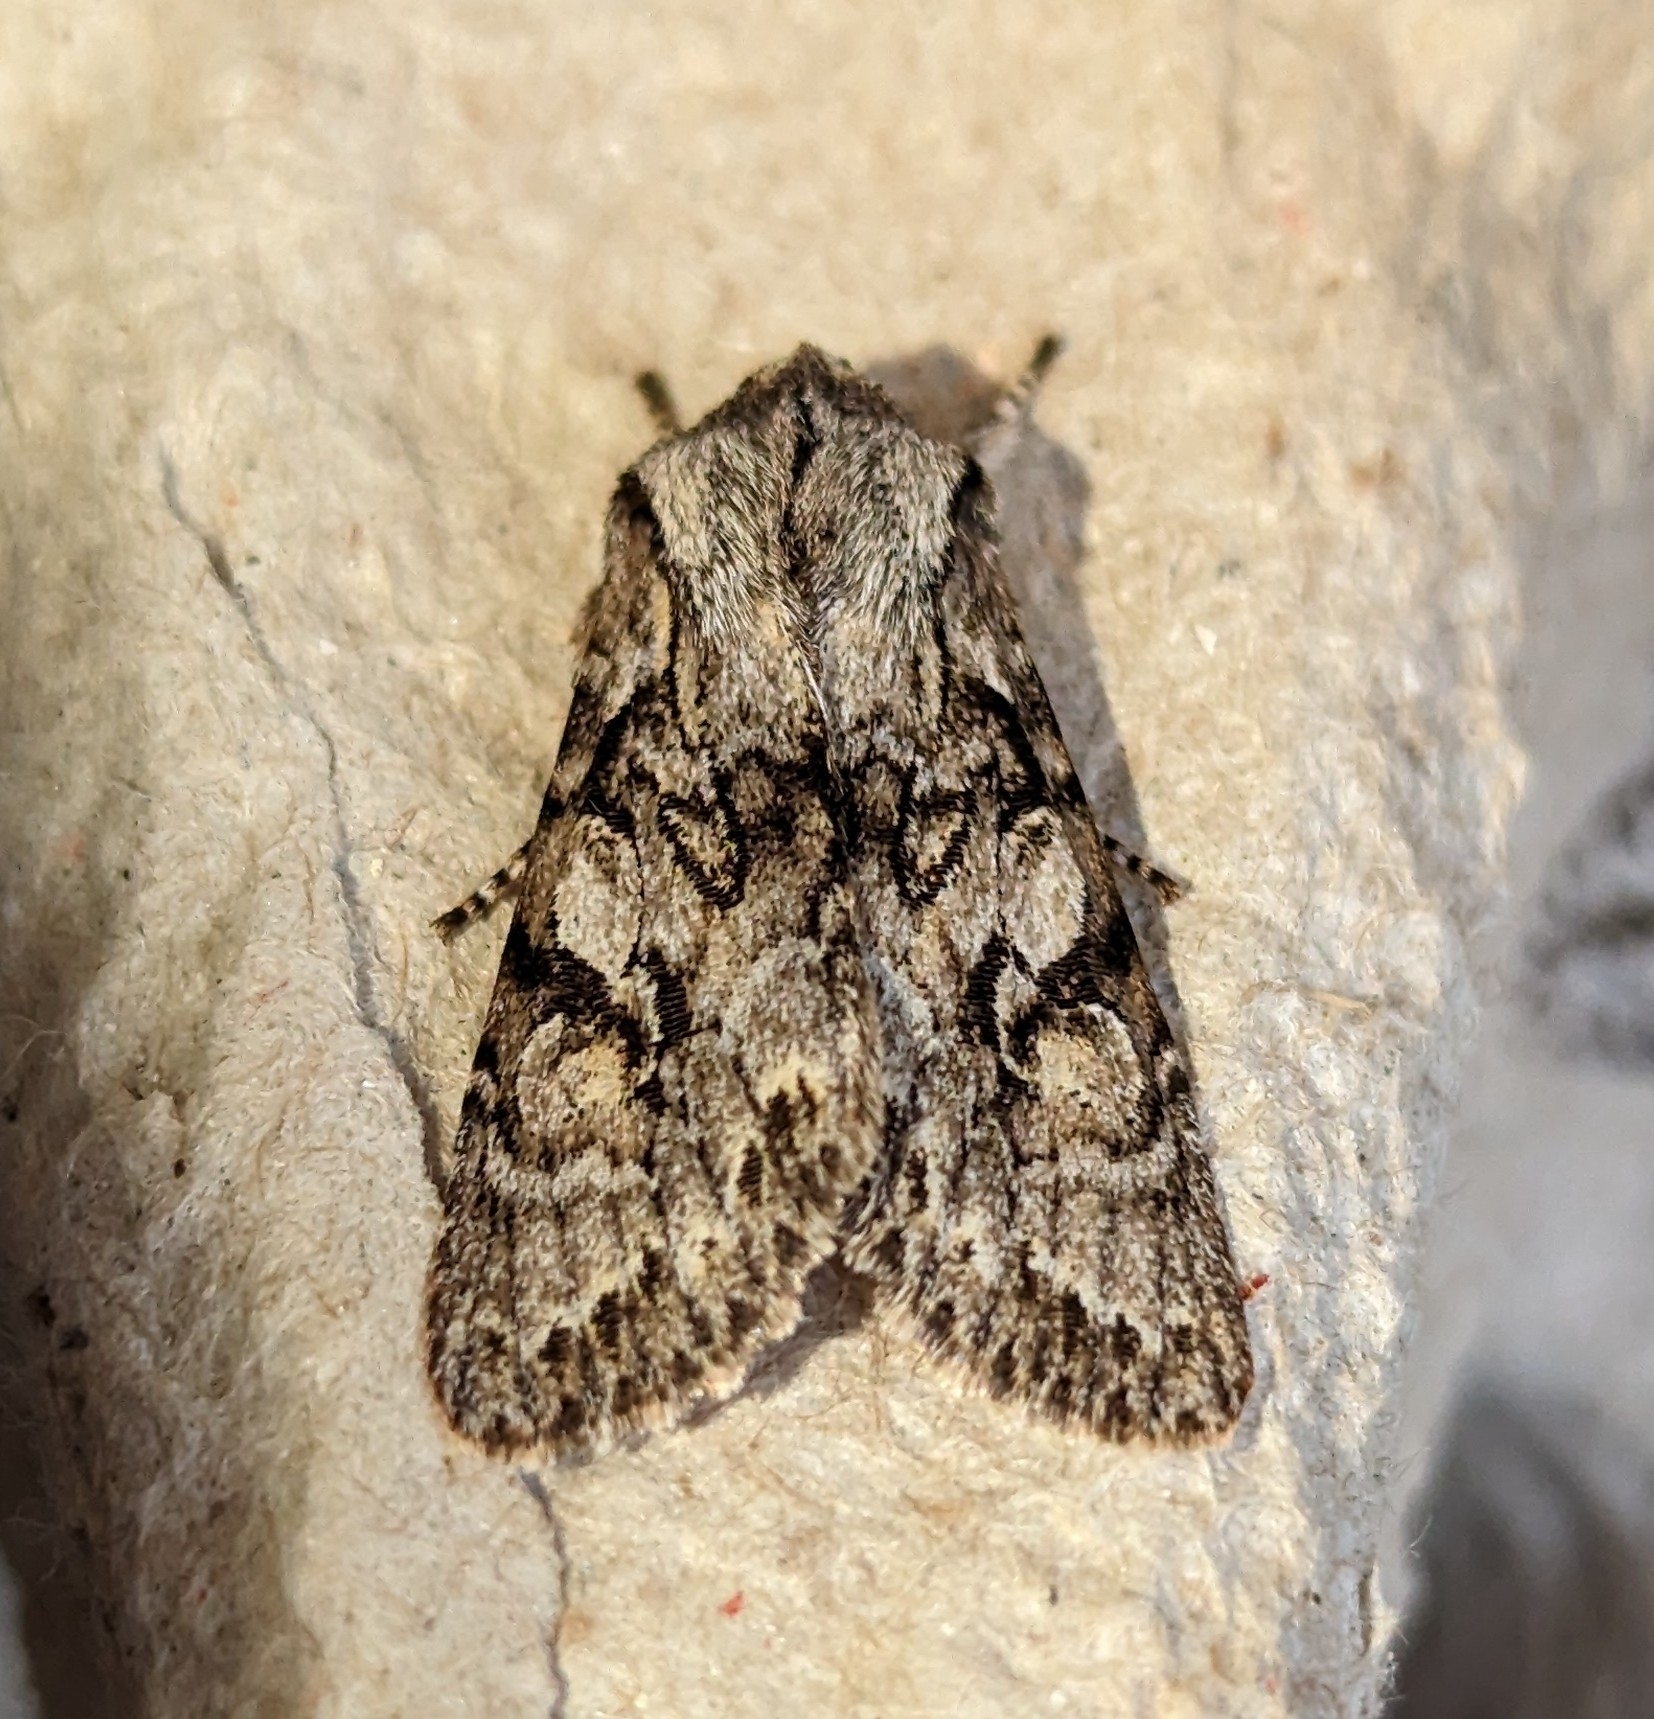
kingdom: Animalia
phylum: Arthropoda
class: Insecta
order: Lepidoptera
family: Noctuidae
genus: Egira
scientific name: Egira simplex
